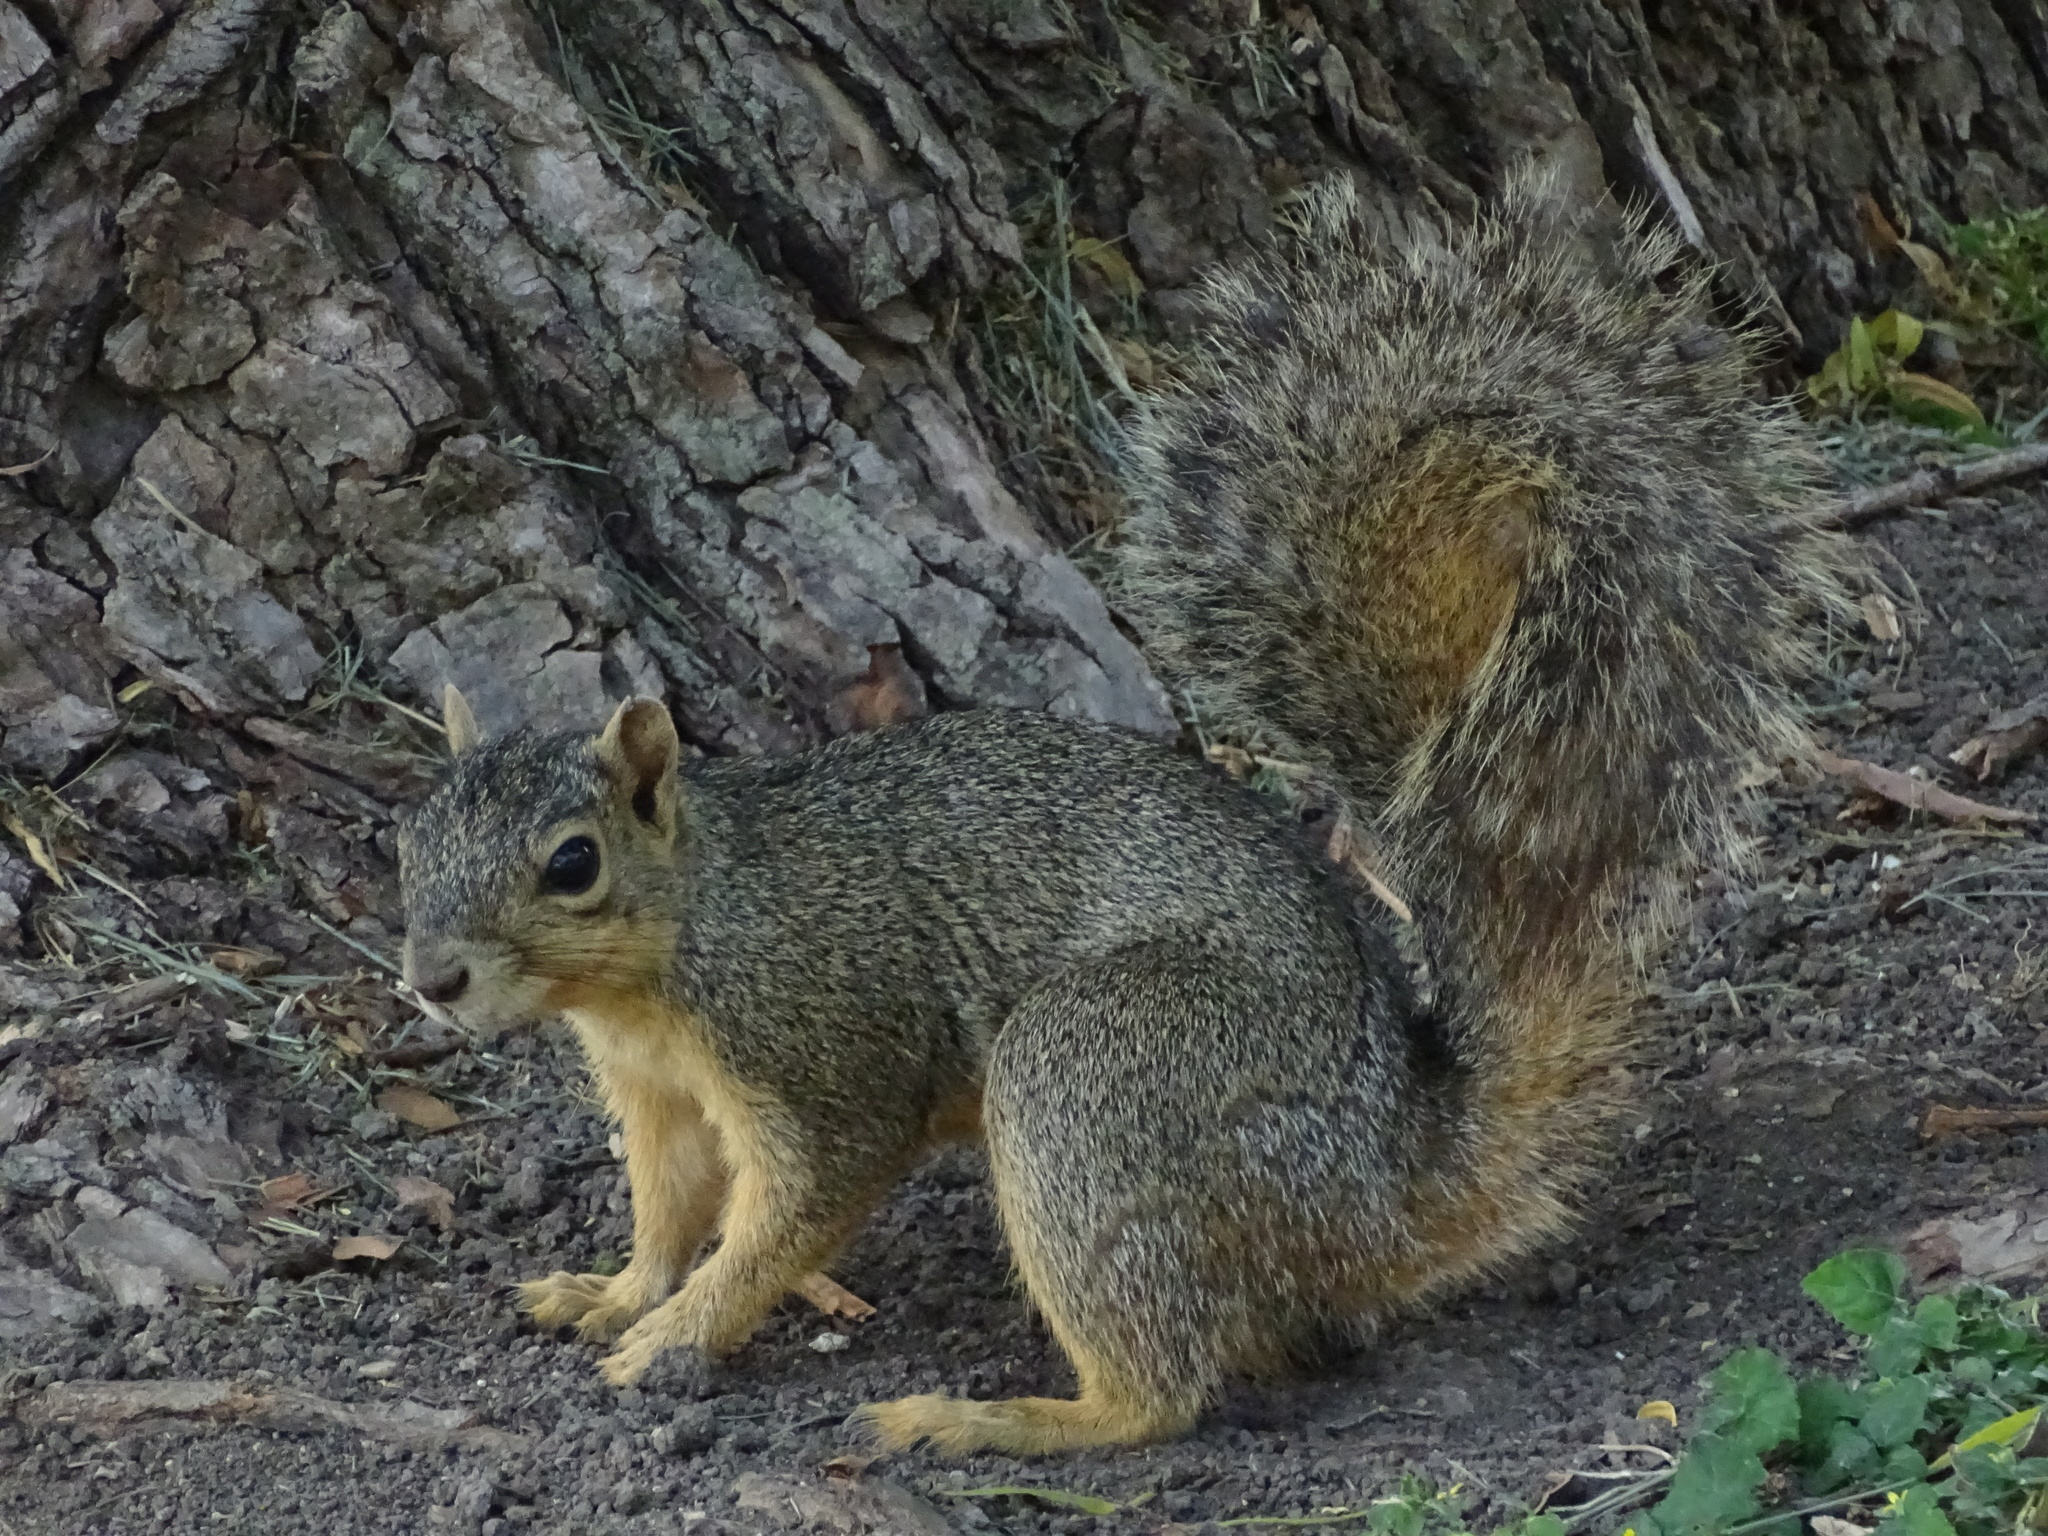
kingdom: Animalia
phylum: Chordata
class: Mammalia
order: Rodentia
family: Sciuridae
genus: Sciurus
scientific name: Sciurus niger
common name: Fox squirrel
